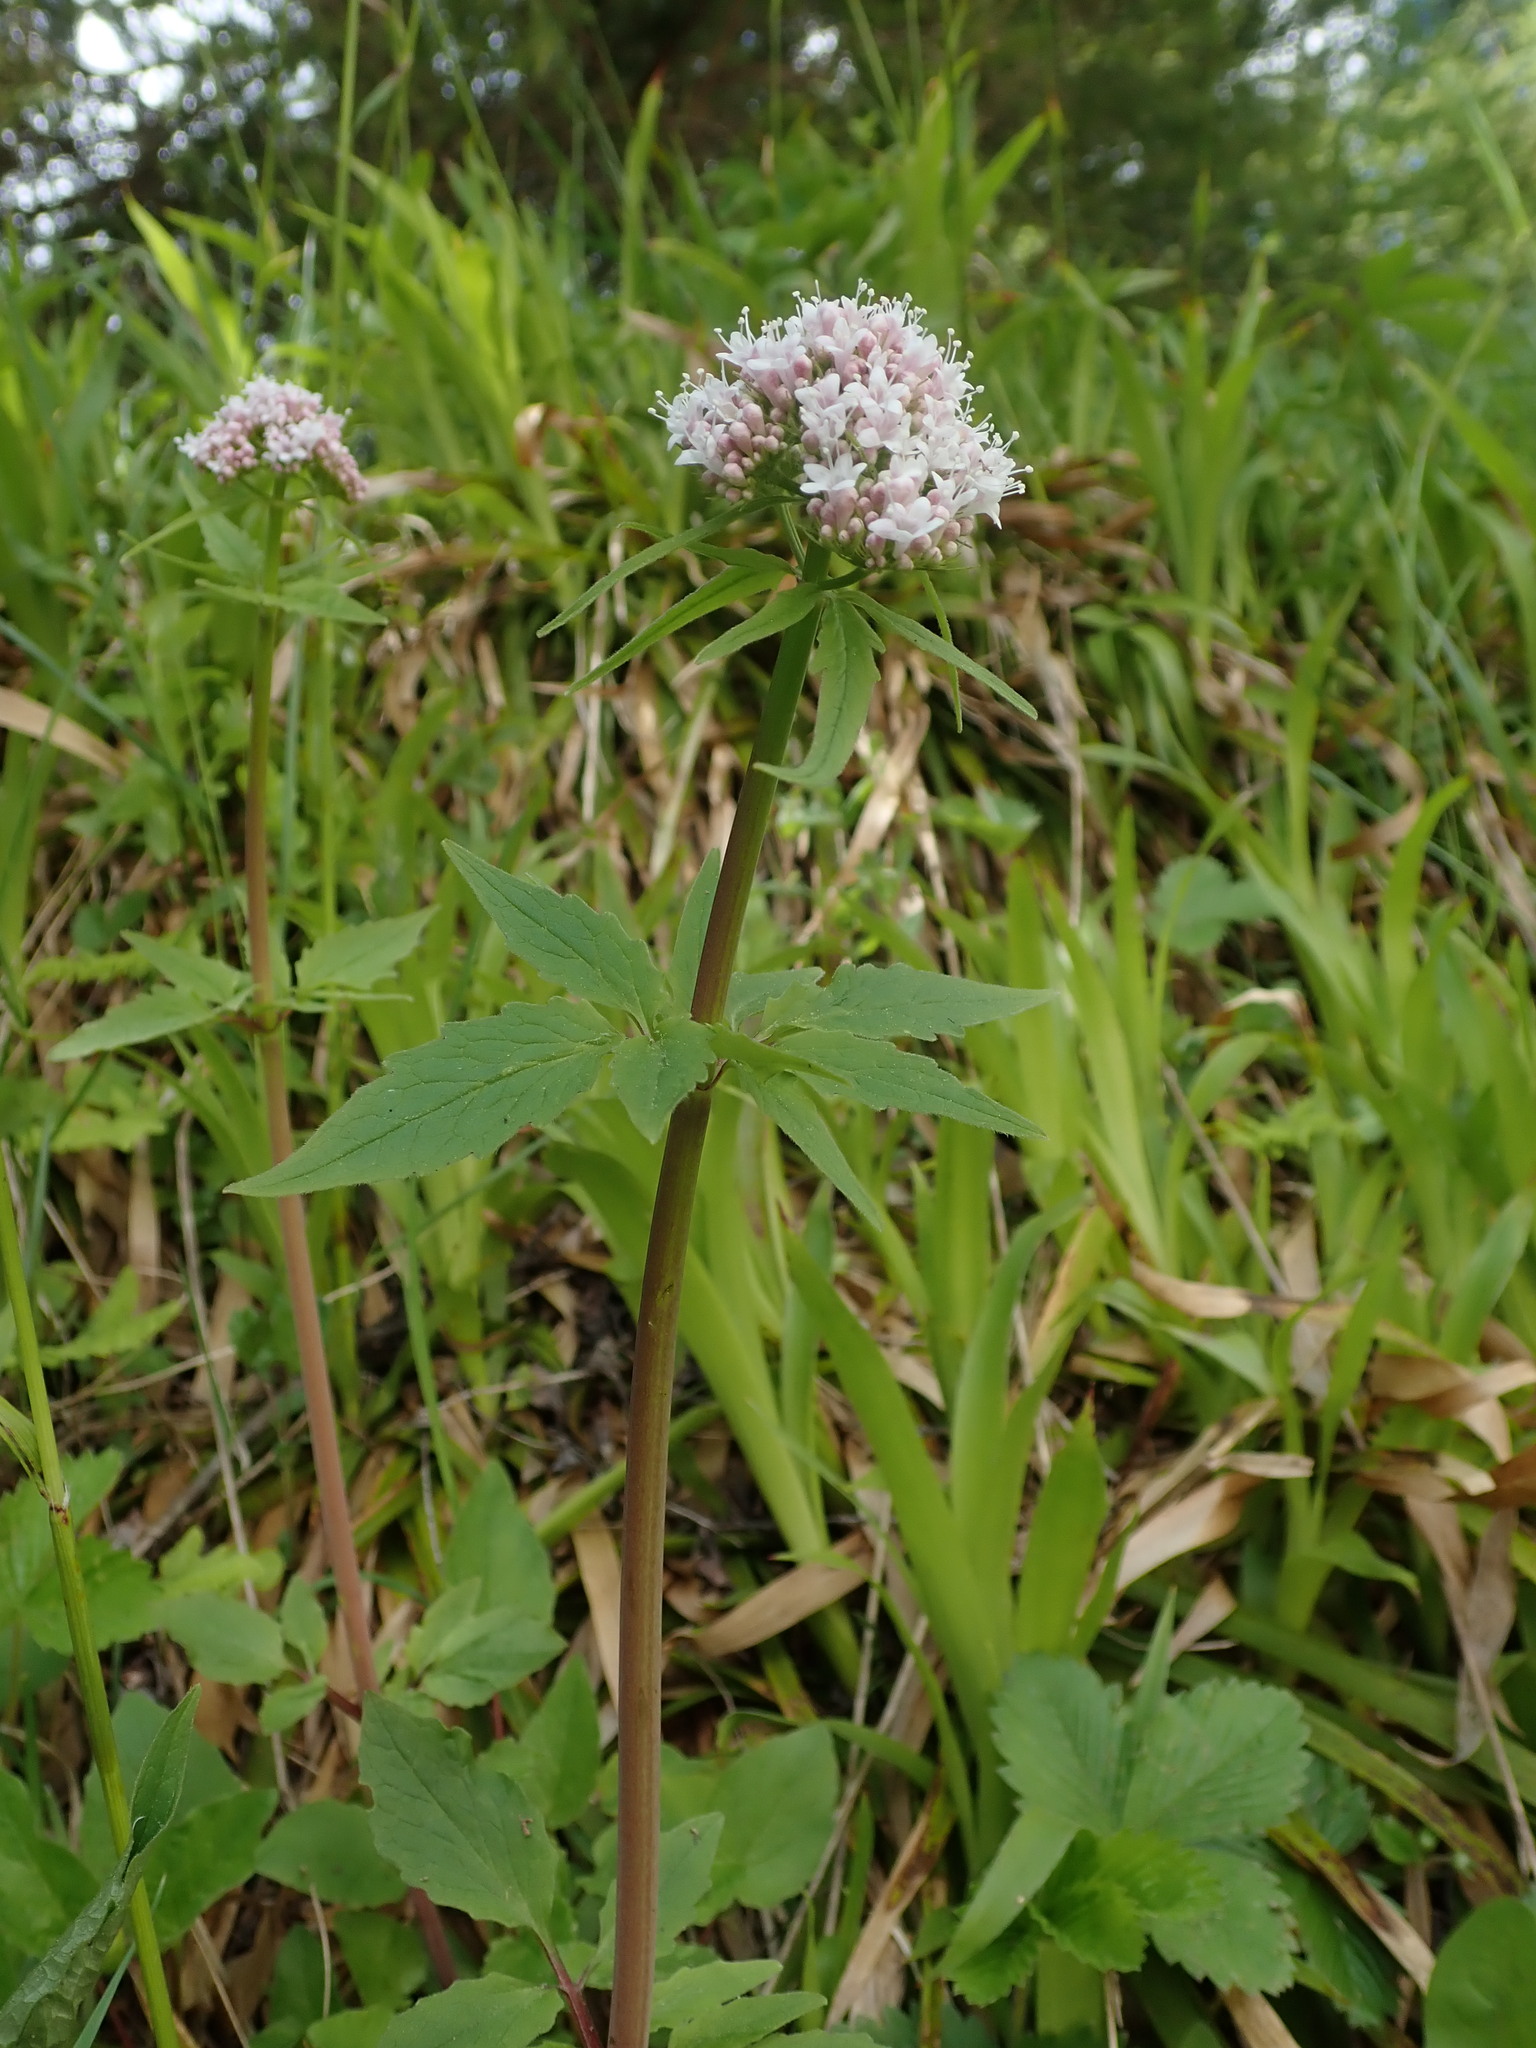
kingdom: Plantae
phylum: Tracheophyta
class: Magnoliopsida
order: Dipsacales
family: Caprifoliaceae
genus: Valeriana
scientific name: Valeriana tripteris
